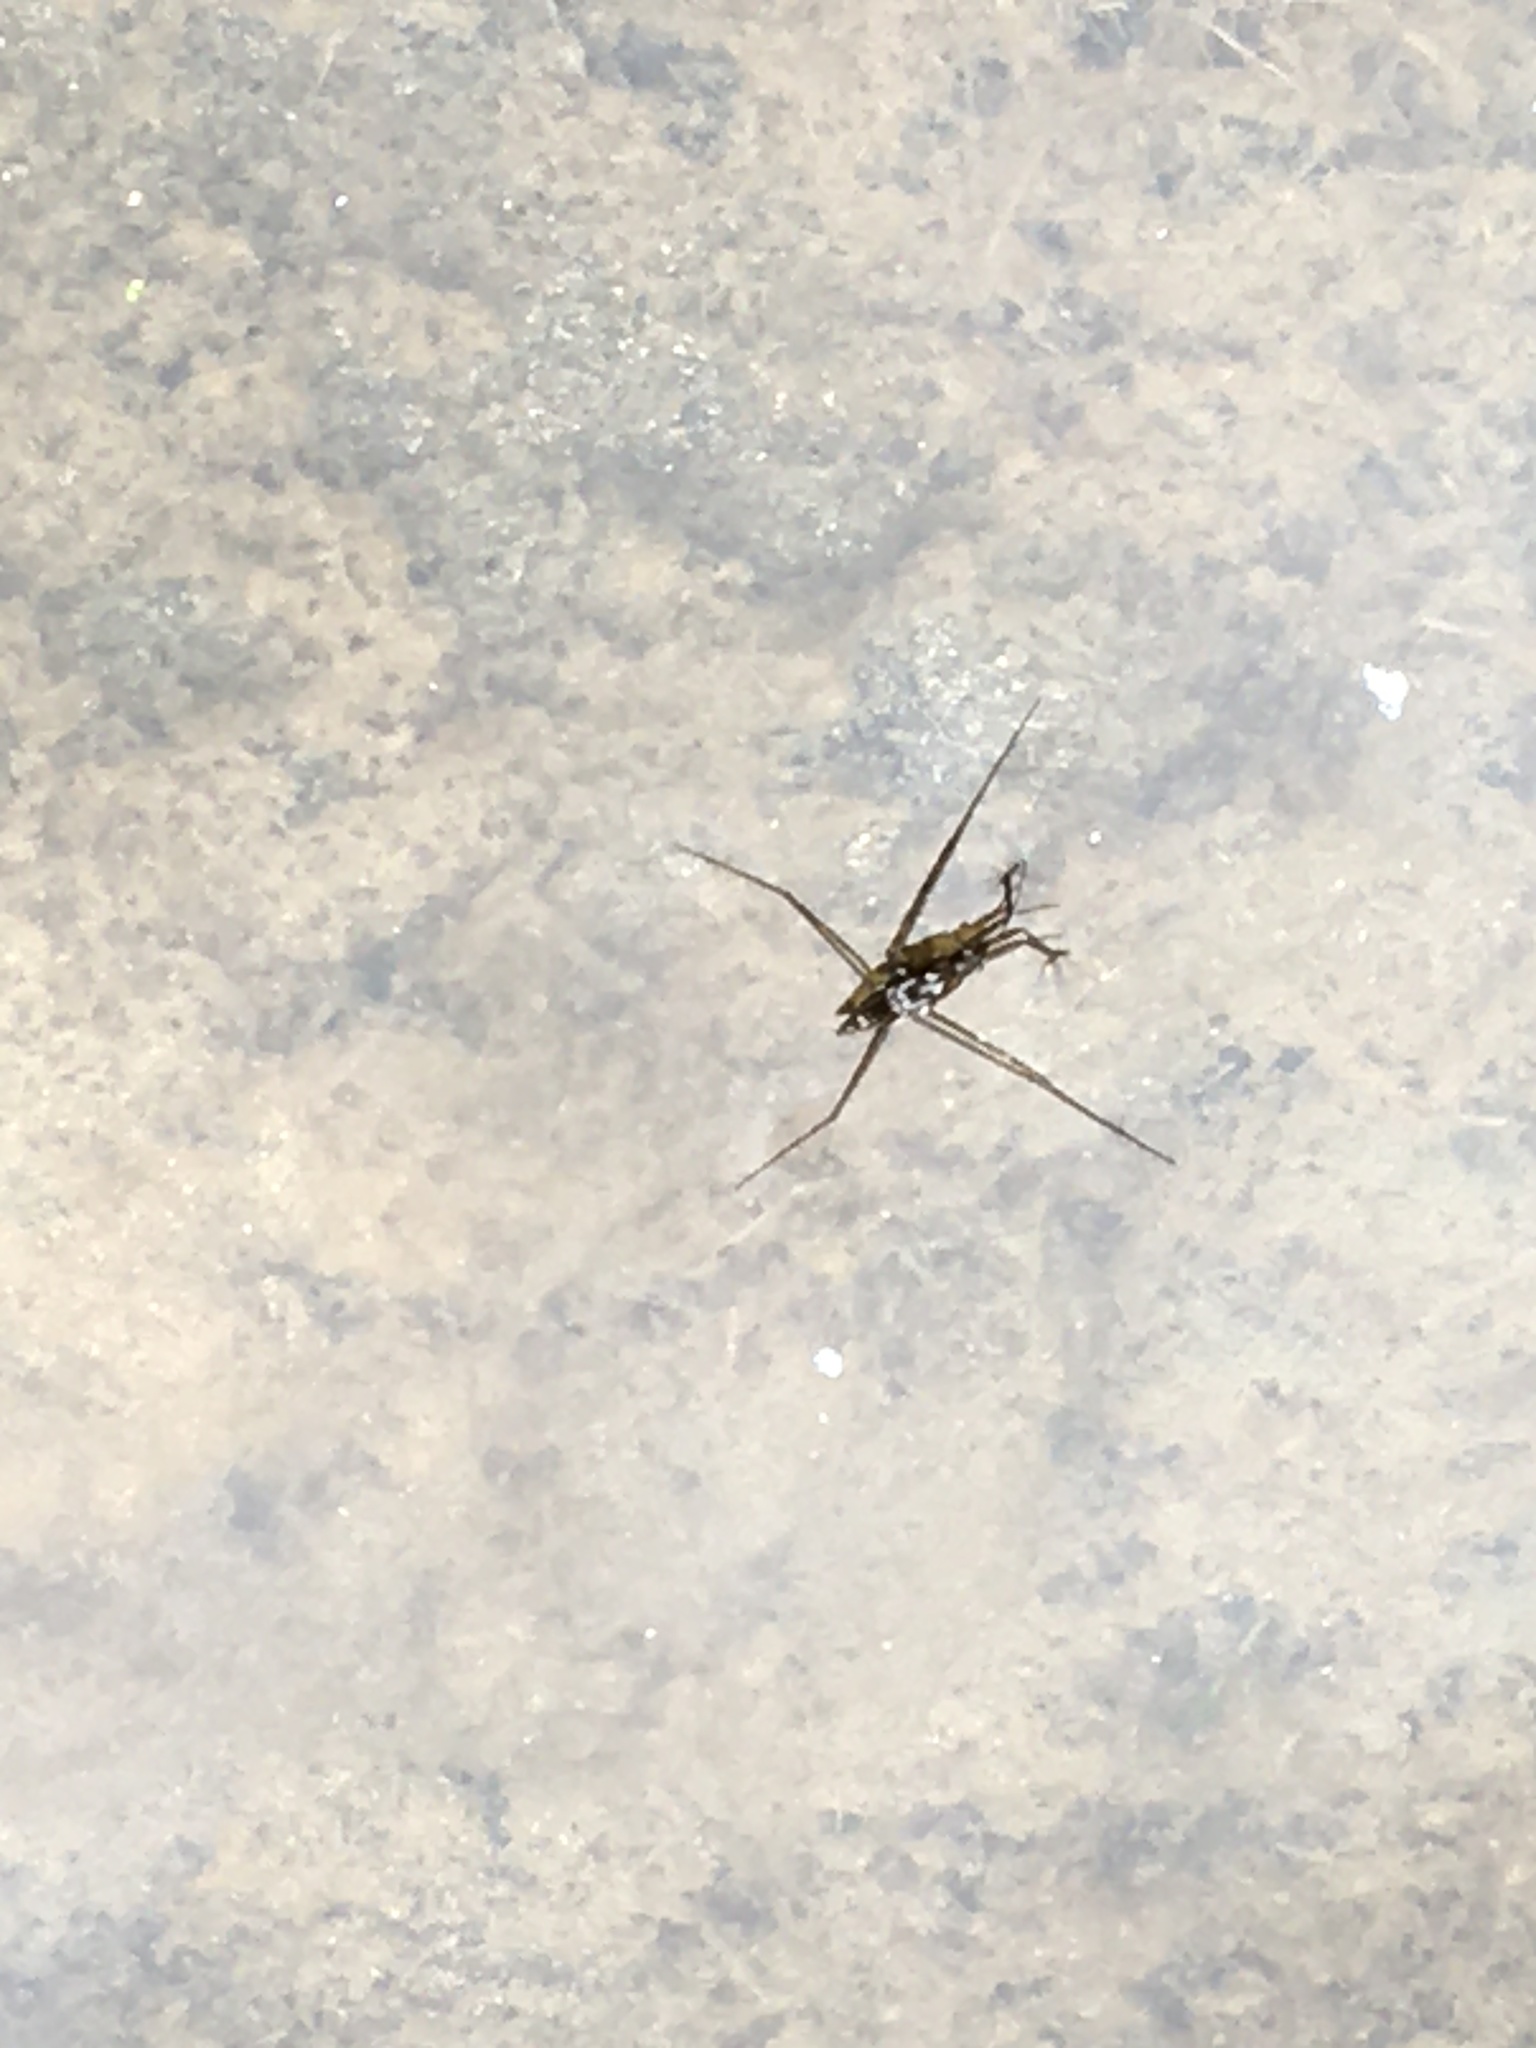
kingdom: Animalia
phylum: Arthropoda
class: Insecta
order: Hemiptera
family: Gerridae
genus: Aquarius
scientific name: Aquarius remigis
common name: Common water strider
